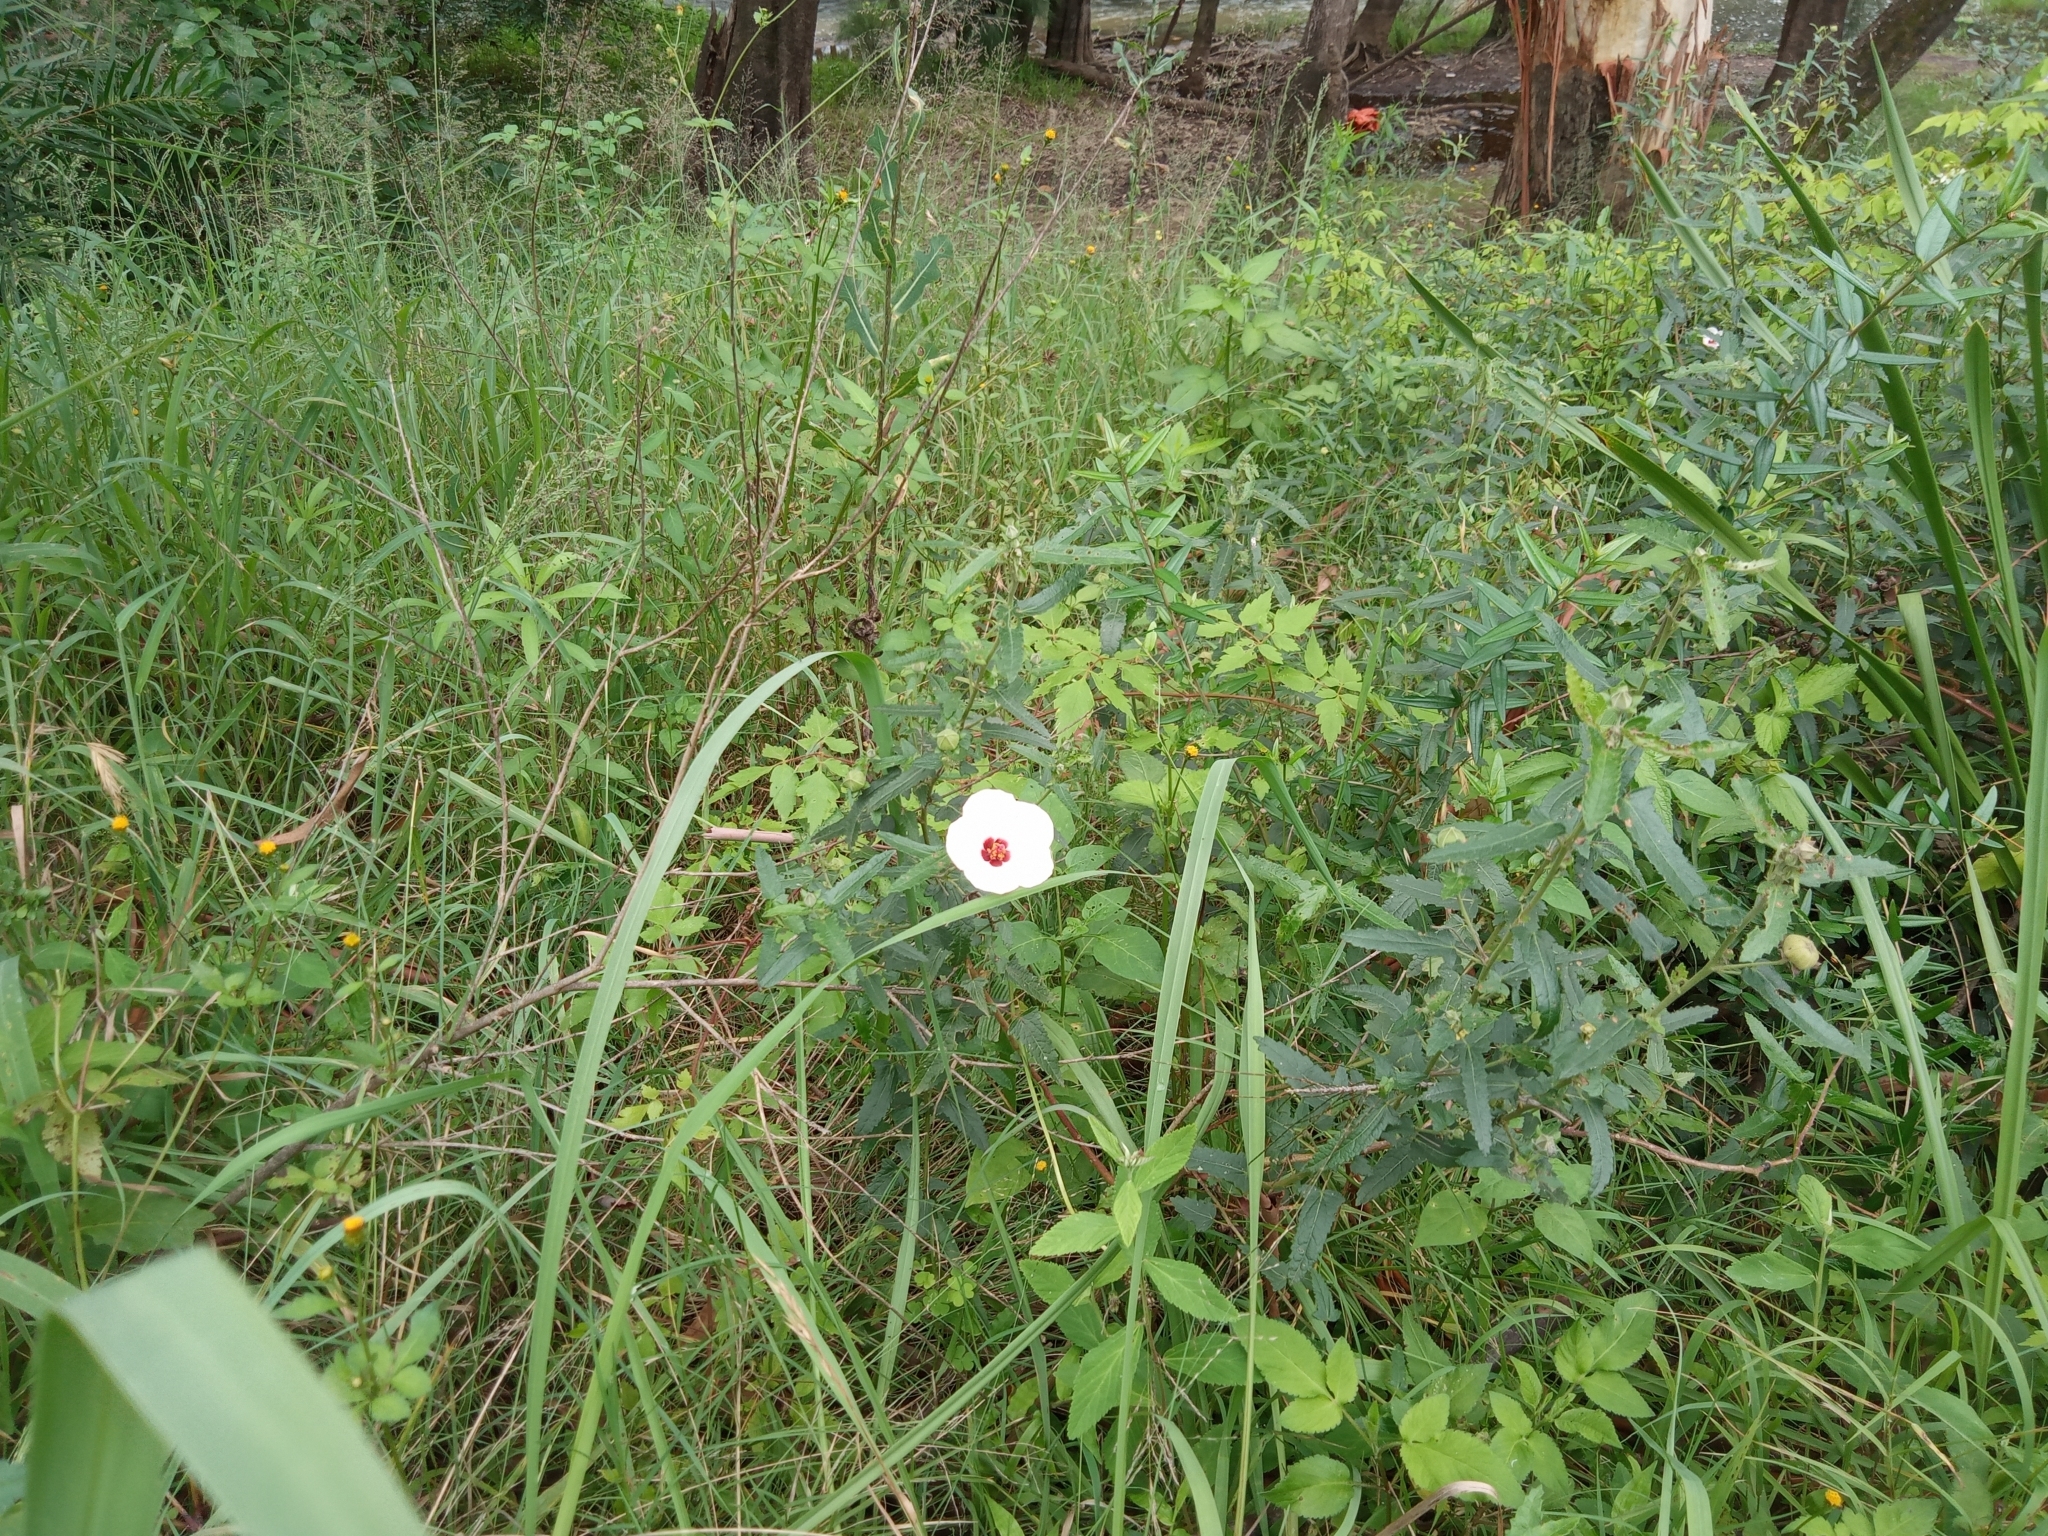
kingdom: Plantae
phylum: Tracheophyta
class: Magnoliopsida
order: Malvales
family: Malvaceae
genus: Pavonia
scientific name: Pavonia hastata
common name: Spearleaf swampmallow
